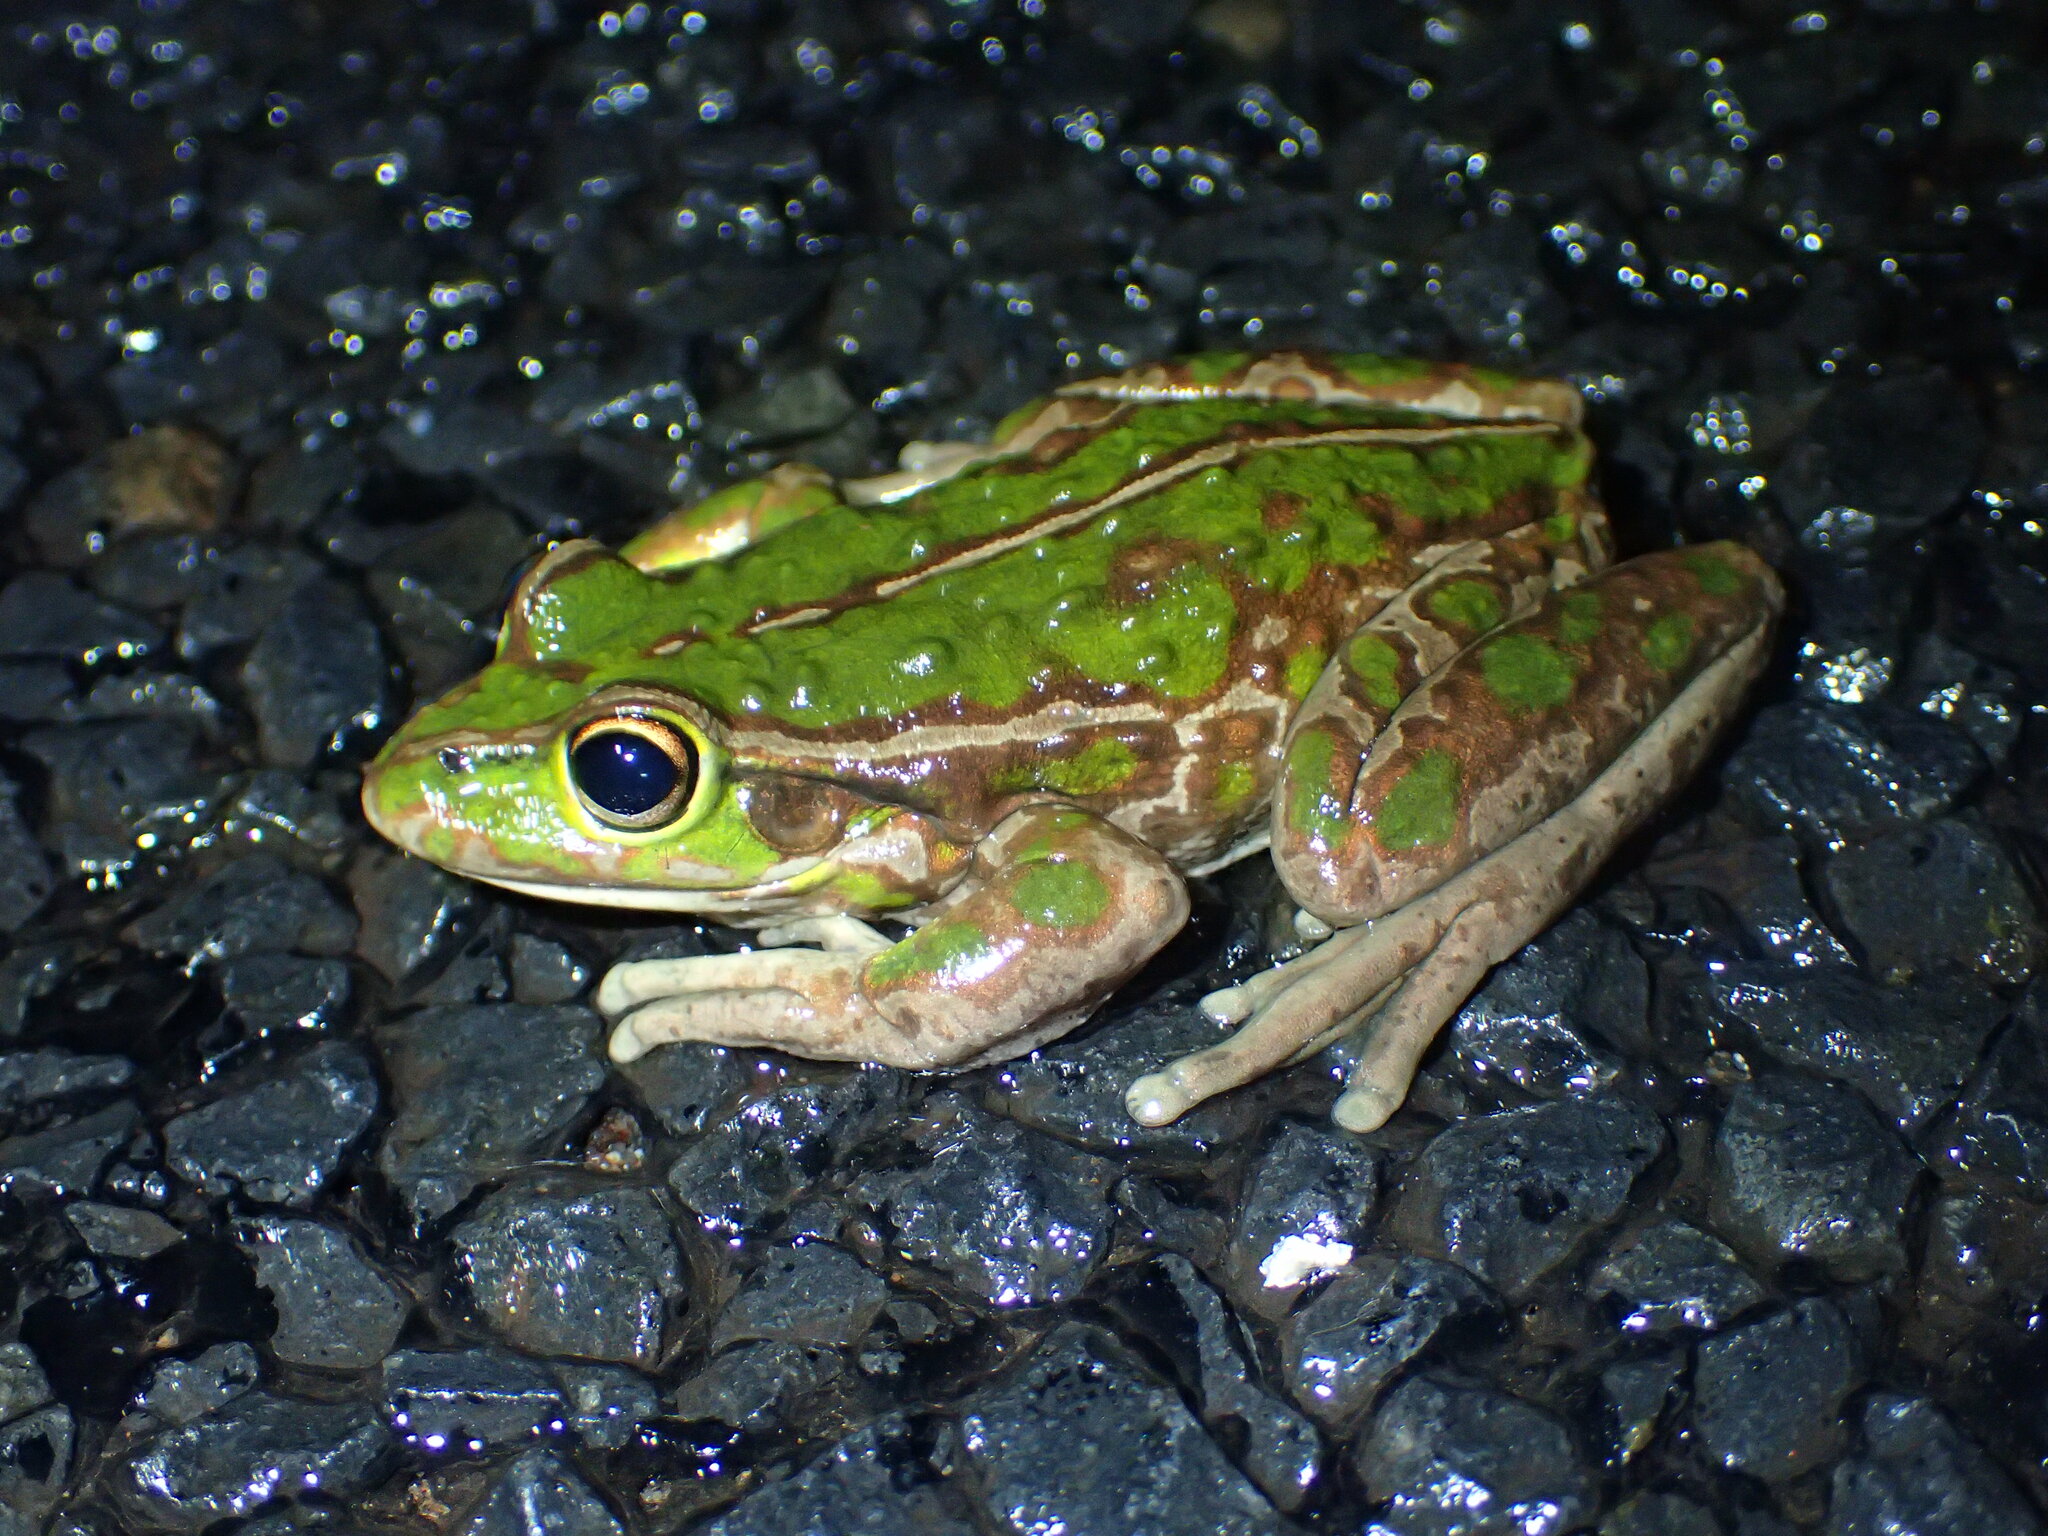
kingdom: Animalia
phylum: Chordata
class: Amphibia
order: Anura
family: Pelodryadidae
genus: Ranoidea
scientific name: Ranoidea moorei
